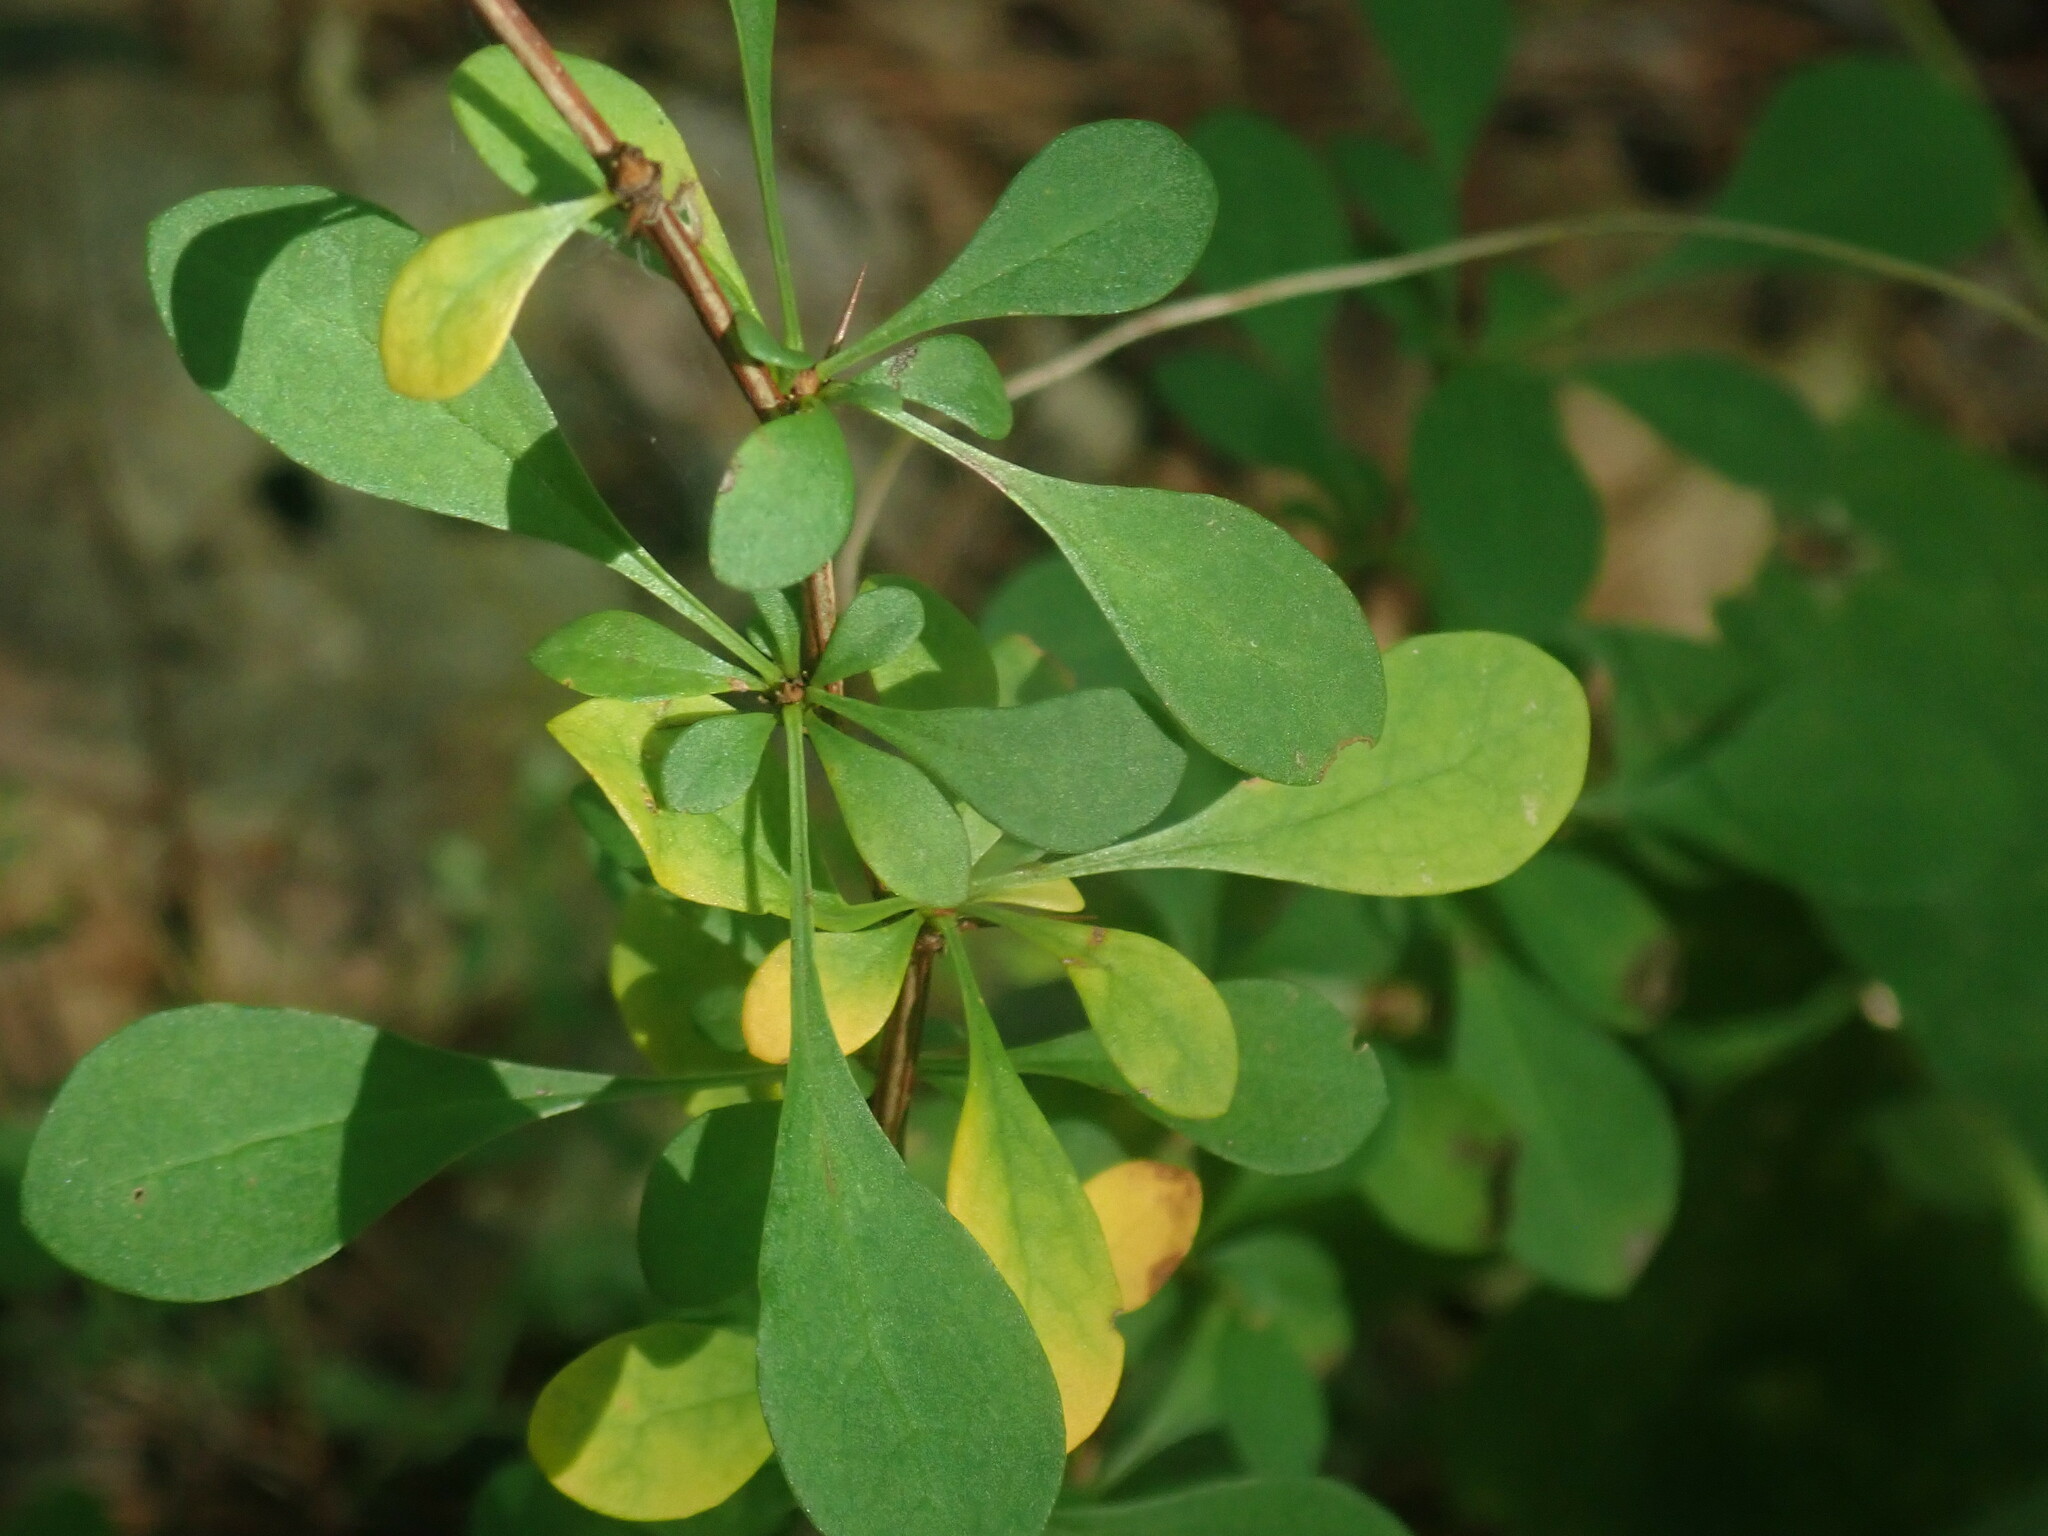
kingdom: Plantae
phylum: Tracheophyta
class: Magnoliopsida
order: Ranunculales
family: Berberidaceae
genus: Berberis
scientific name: Berberis thunbergii
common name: Japanese barberry
